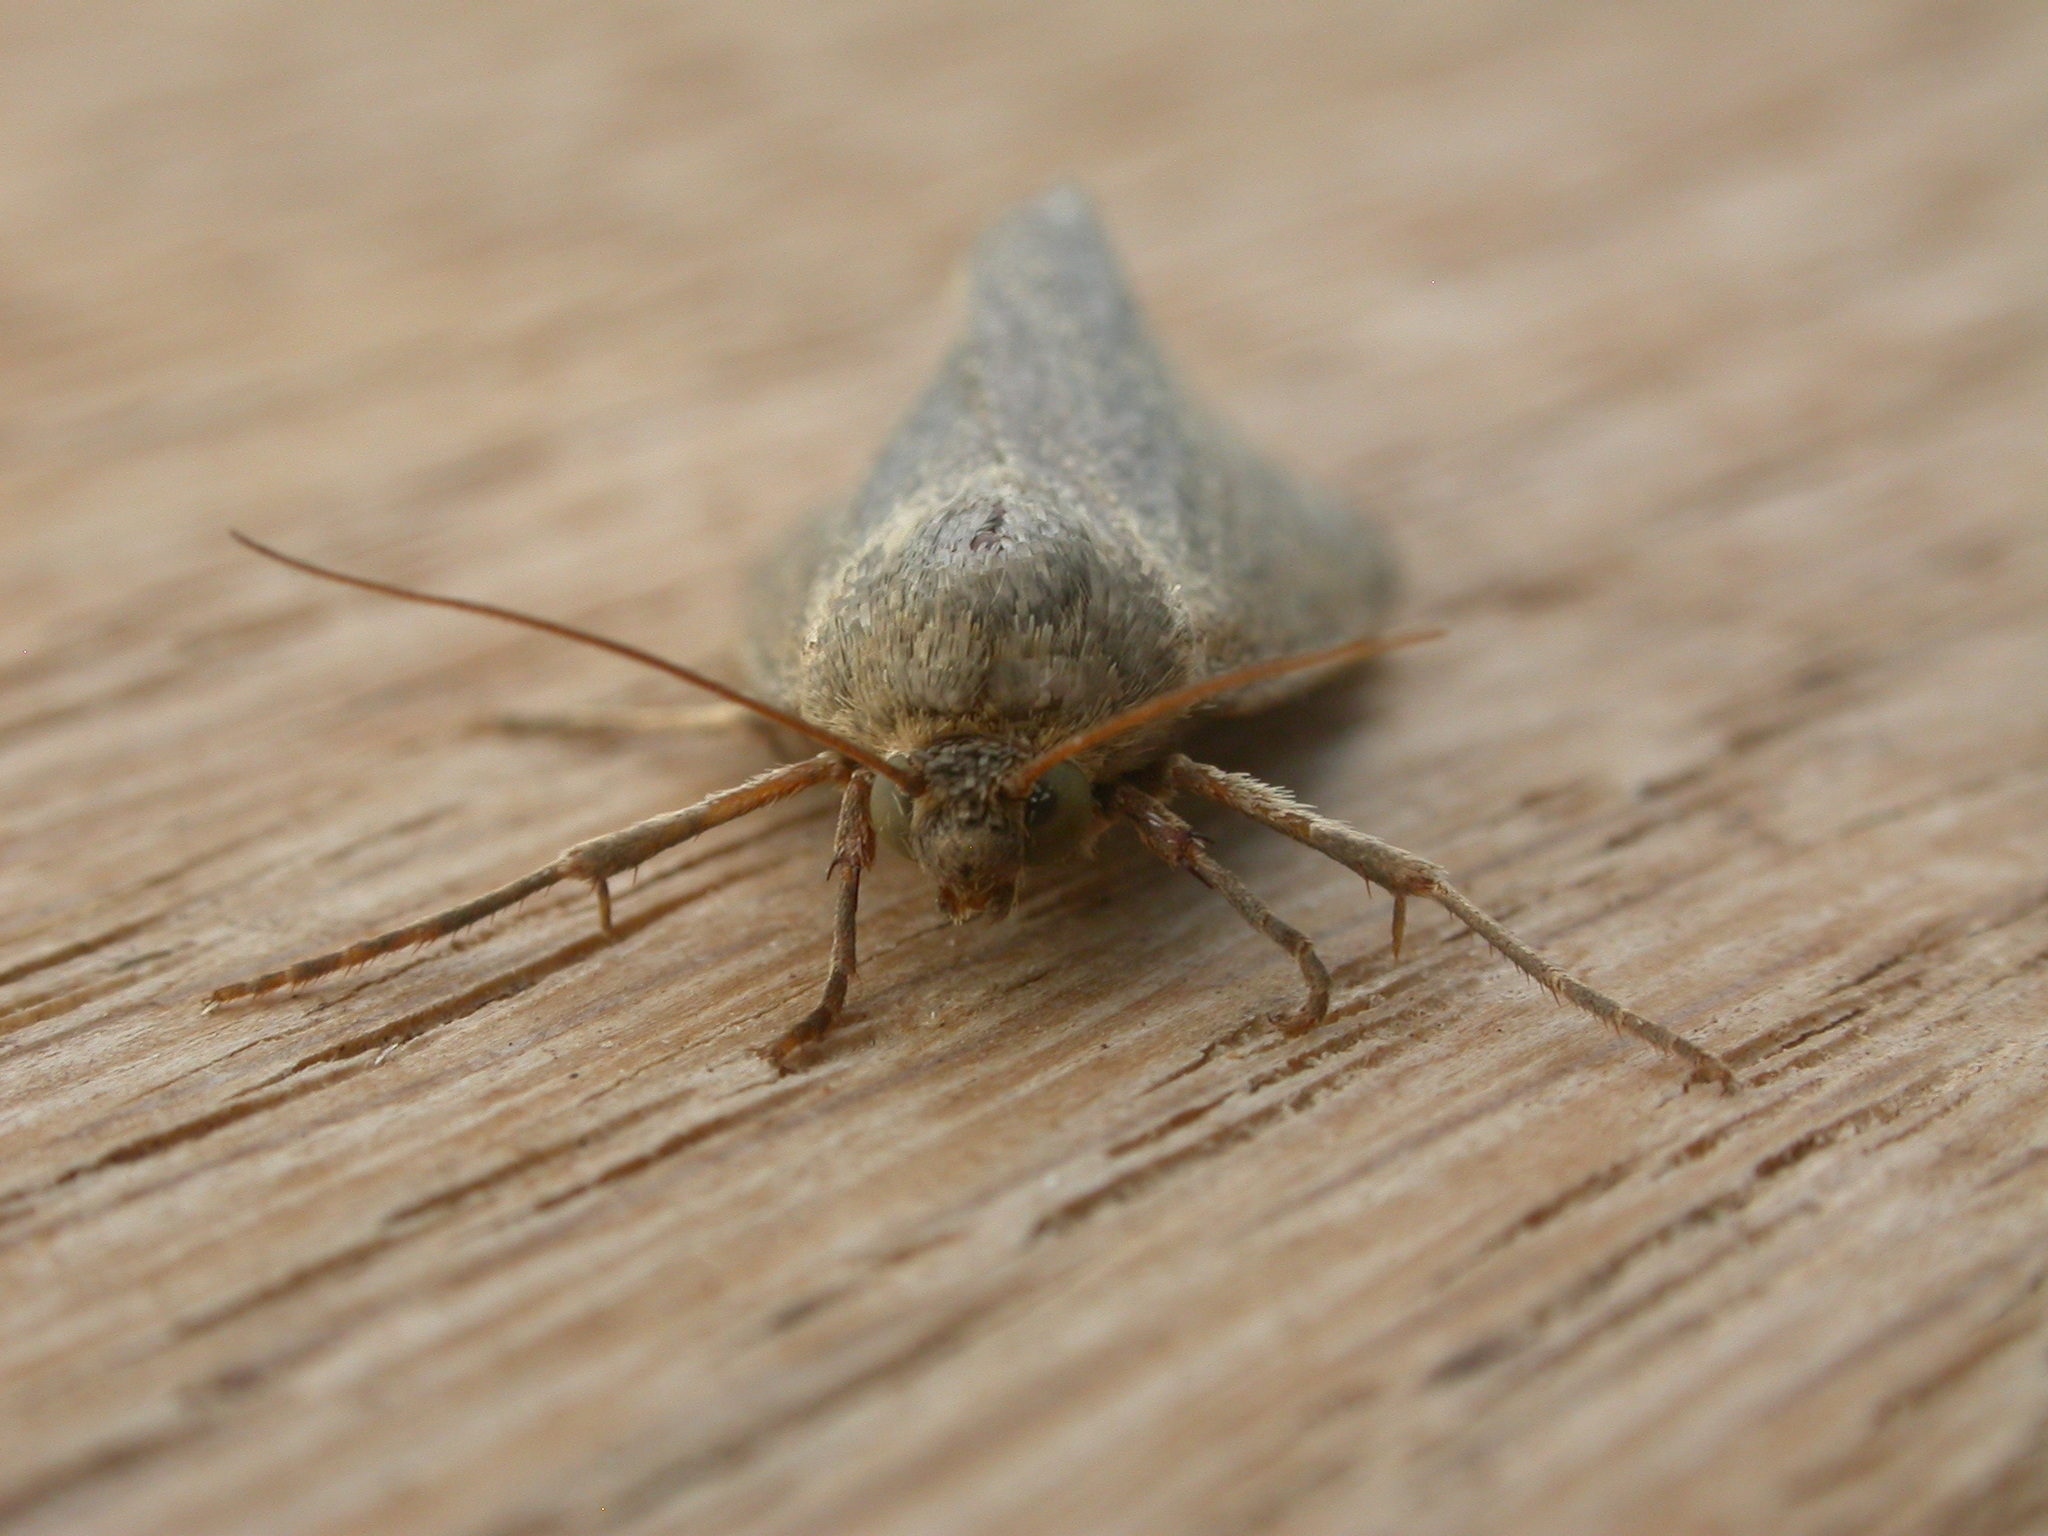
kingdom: Animalia
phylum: Arthropoda
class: Insecta
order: Lepidoptera
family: Noctuidae
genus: Heliocheilus
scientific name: Heliocheilus moribunda
